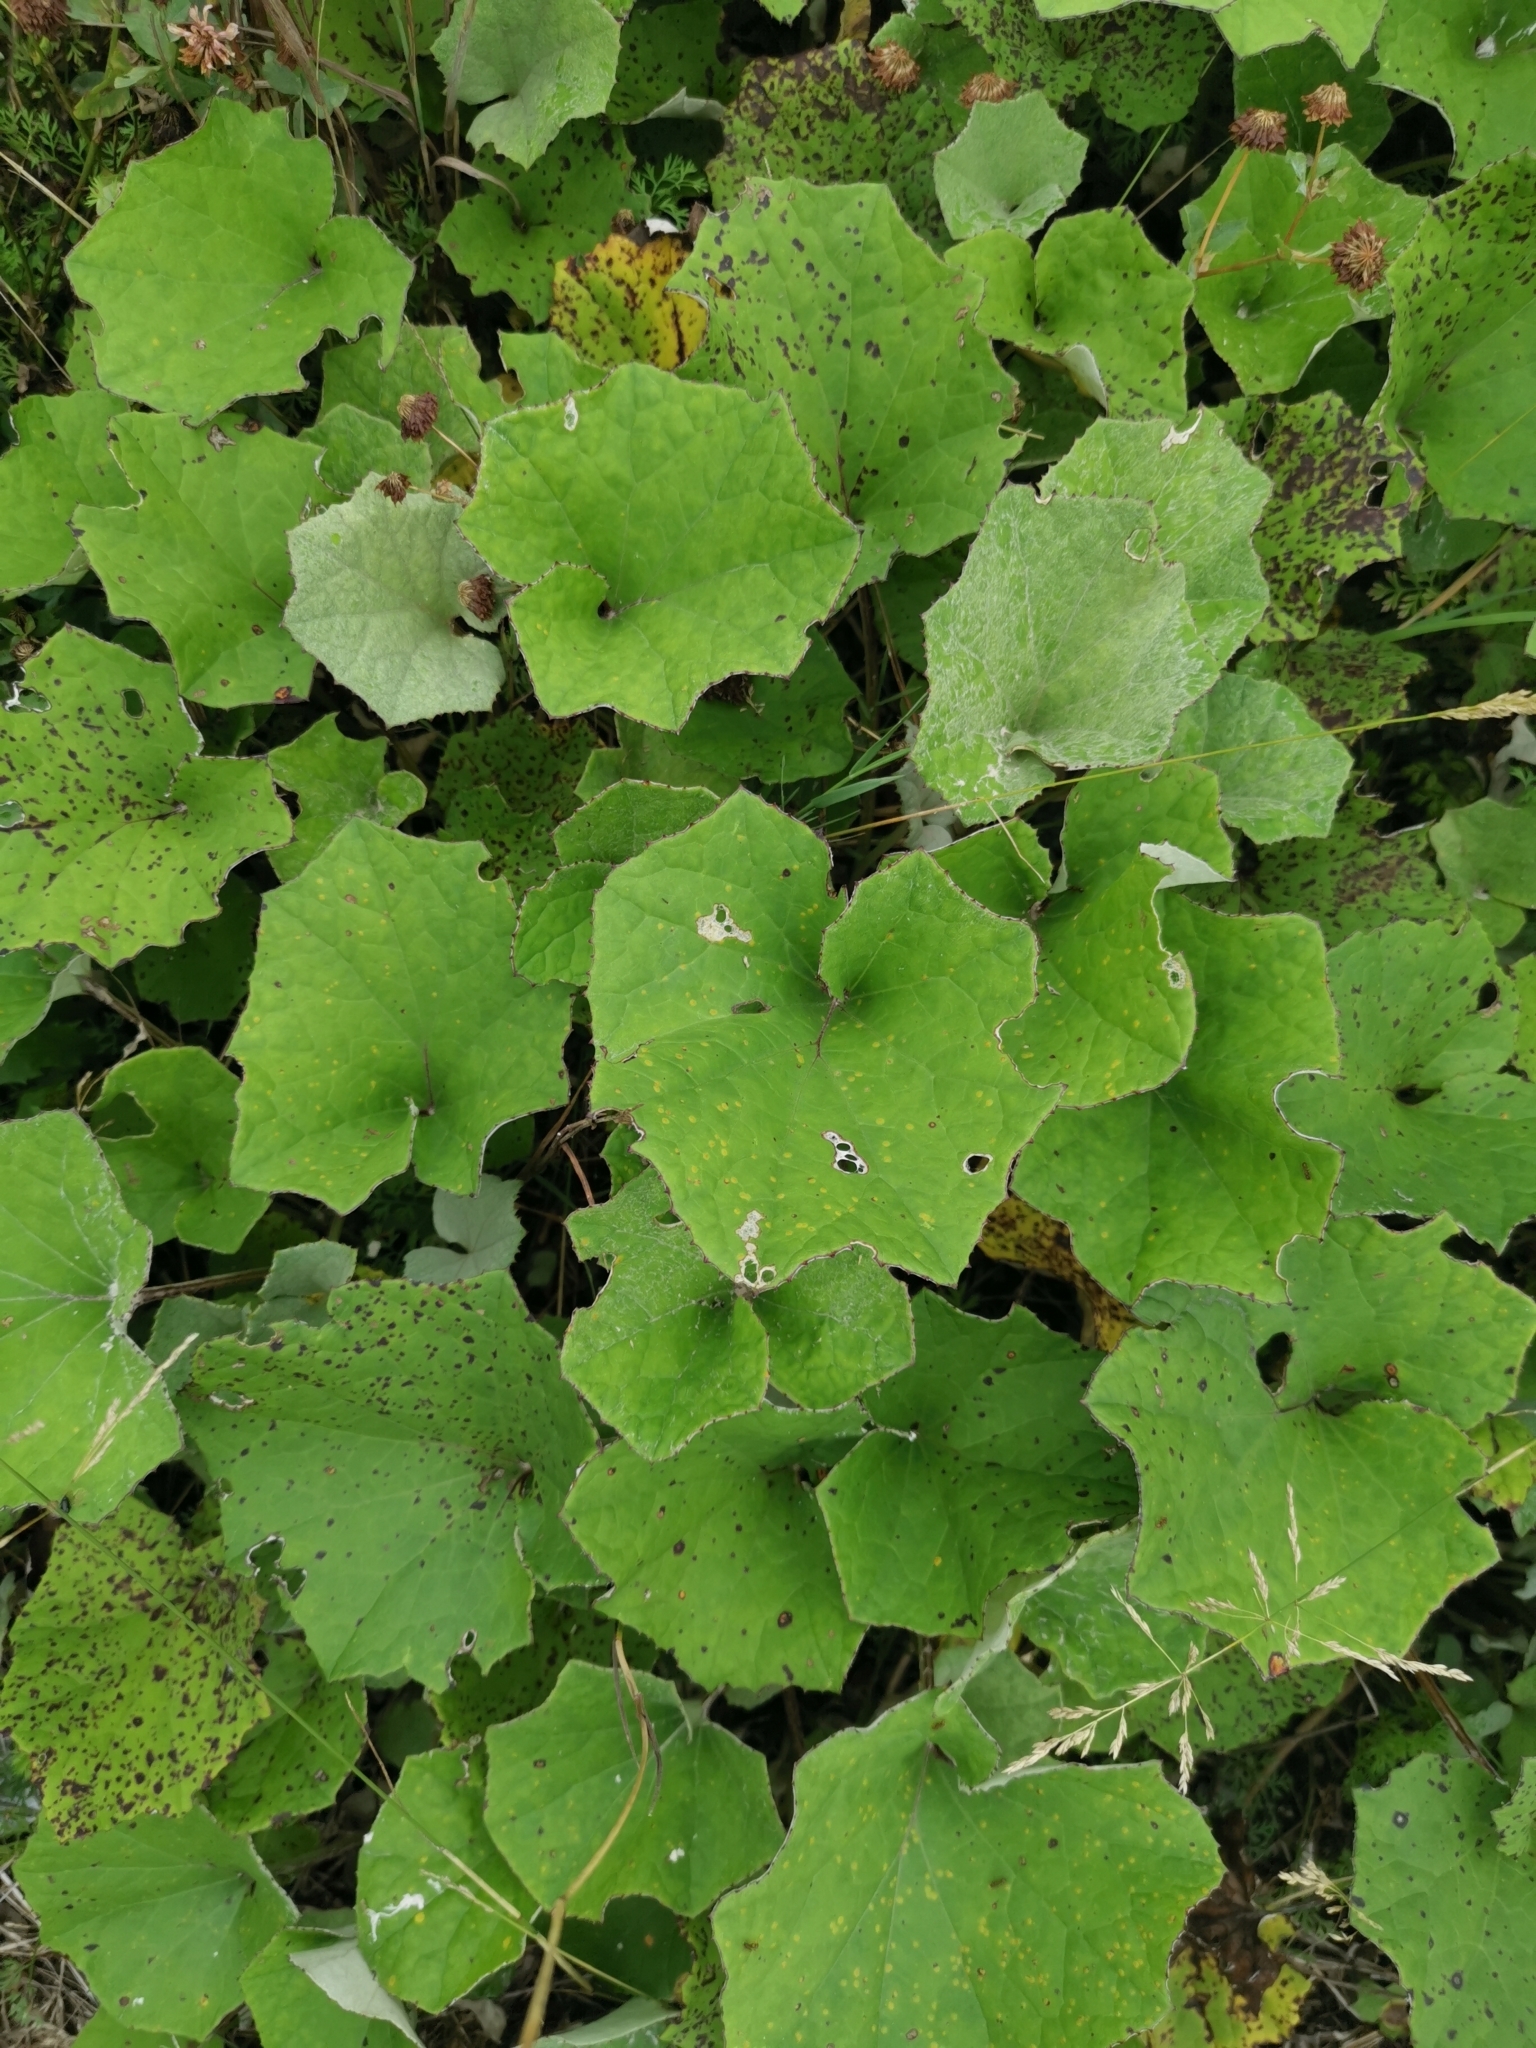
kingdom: Plantae
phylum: Tracheophyta
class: Magnoliopsida
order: Asterales
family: Asteraceae
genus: Tussilago
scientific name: Tussilago farfara
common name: Coltsfoot
